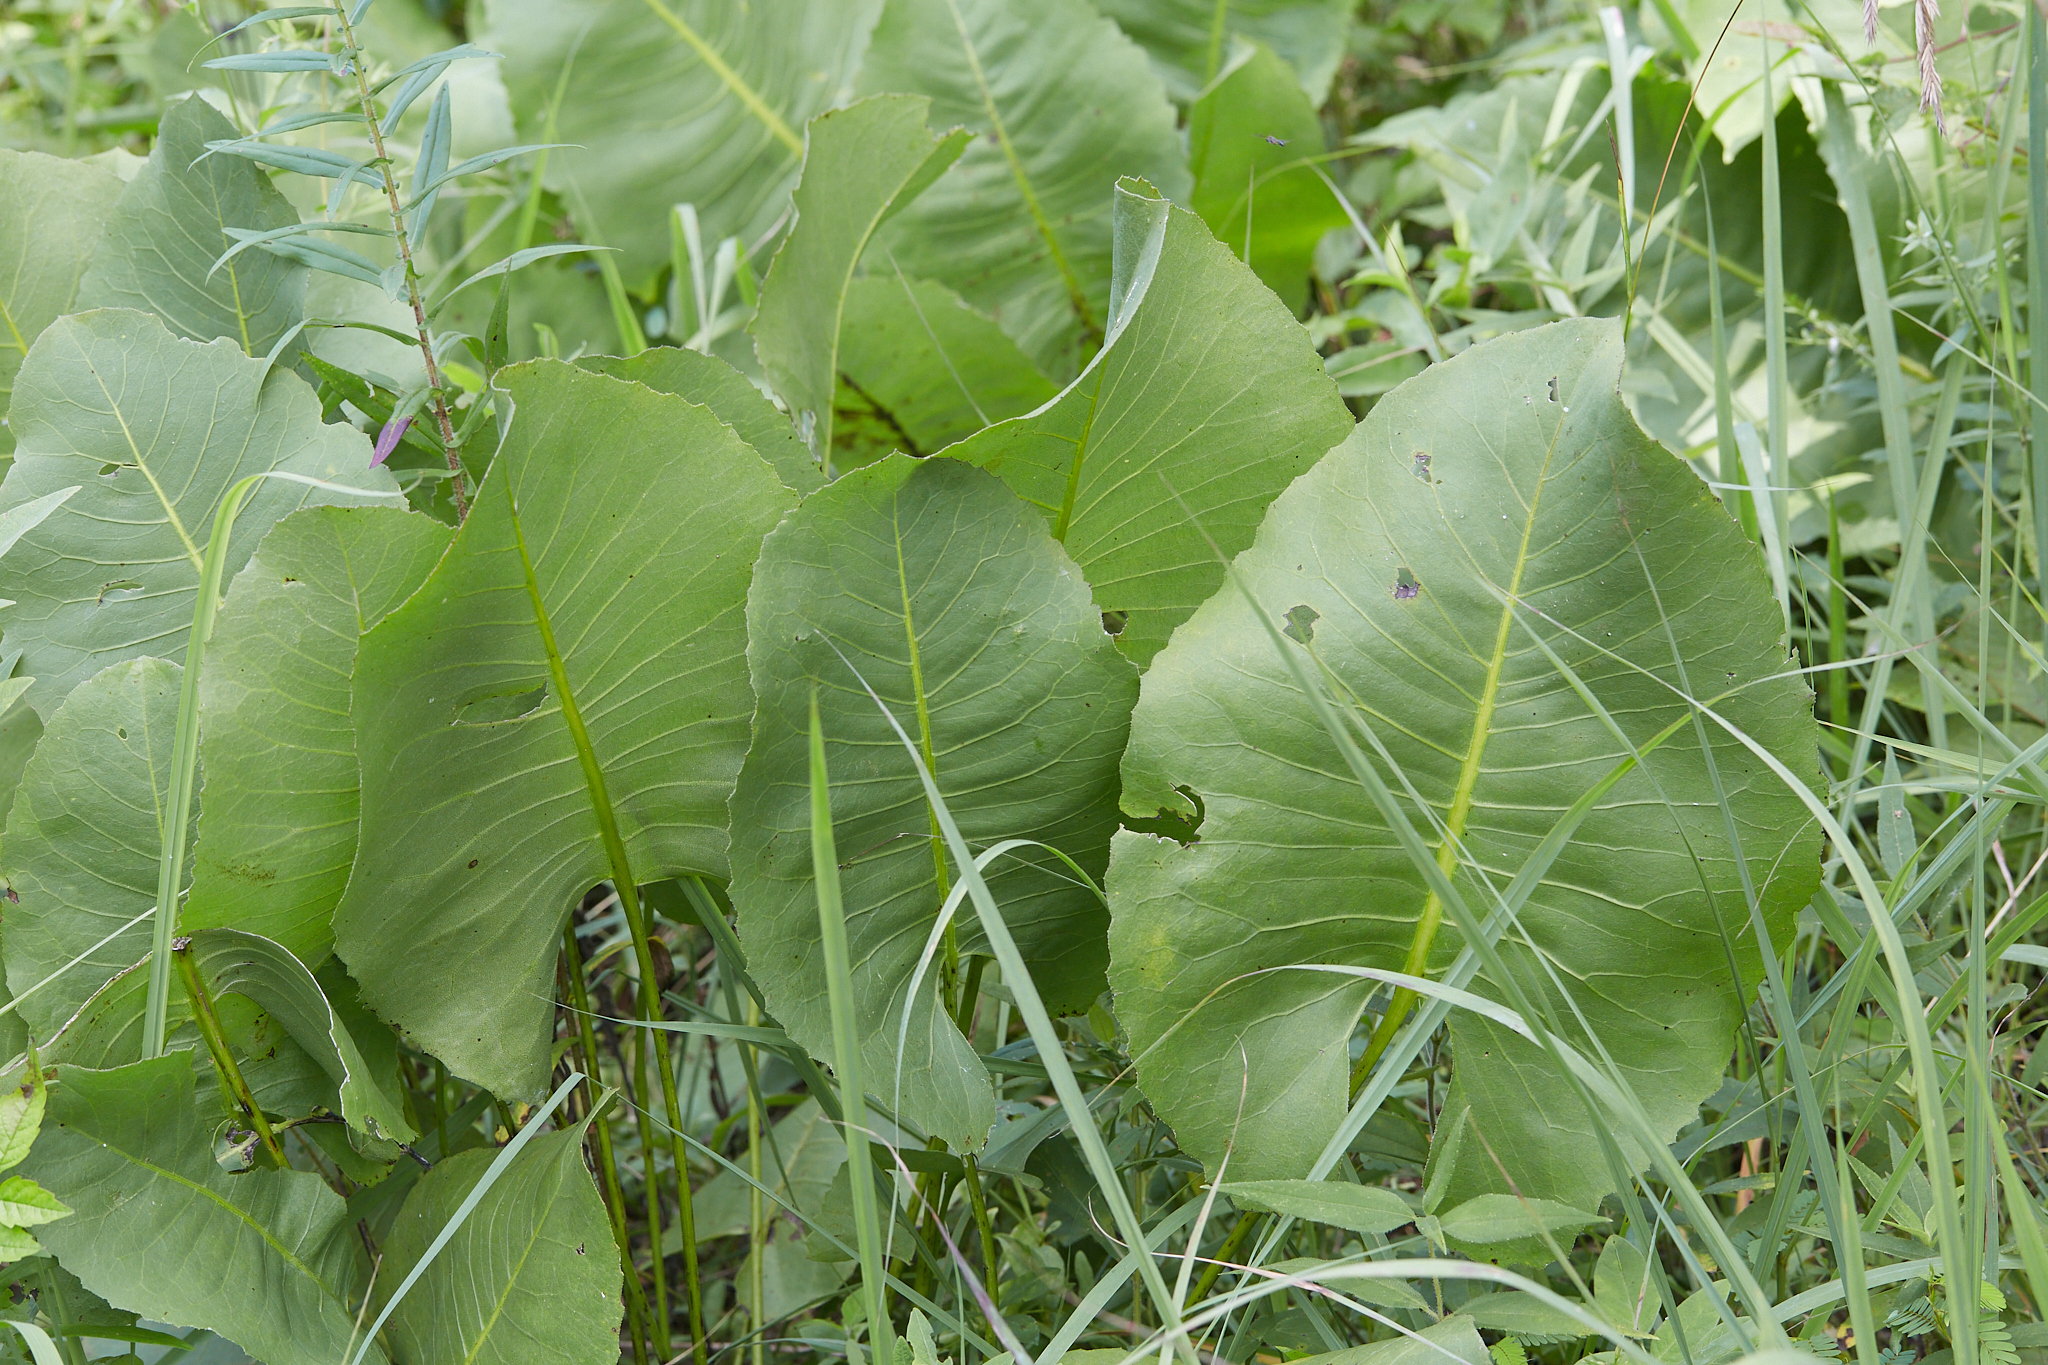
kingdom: Plantae
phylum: Tracheophyta
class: Magnoliopsida
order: Asterales
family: Asteraceae
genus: Silphium
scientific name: Silphium terebinthinaceum
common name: Basal-leaf rosinweed
